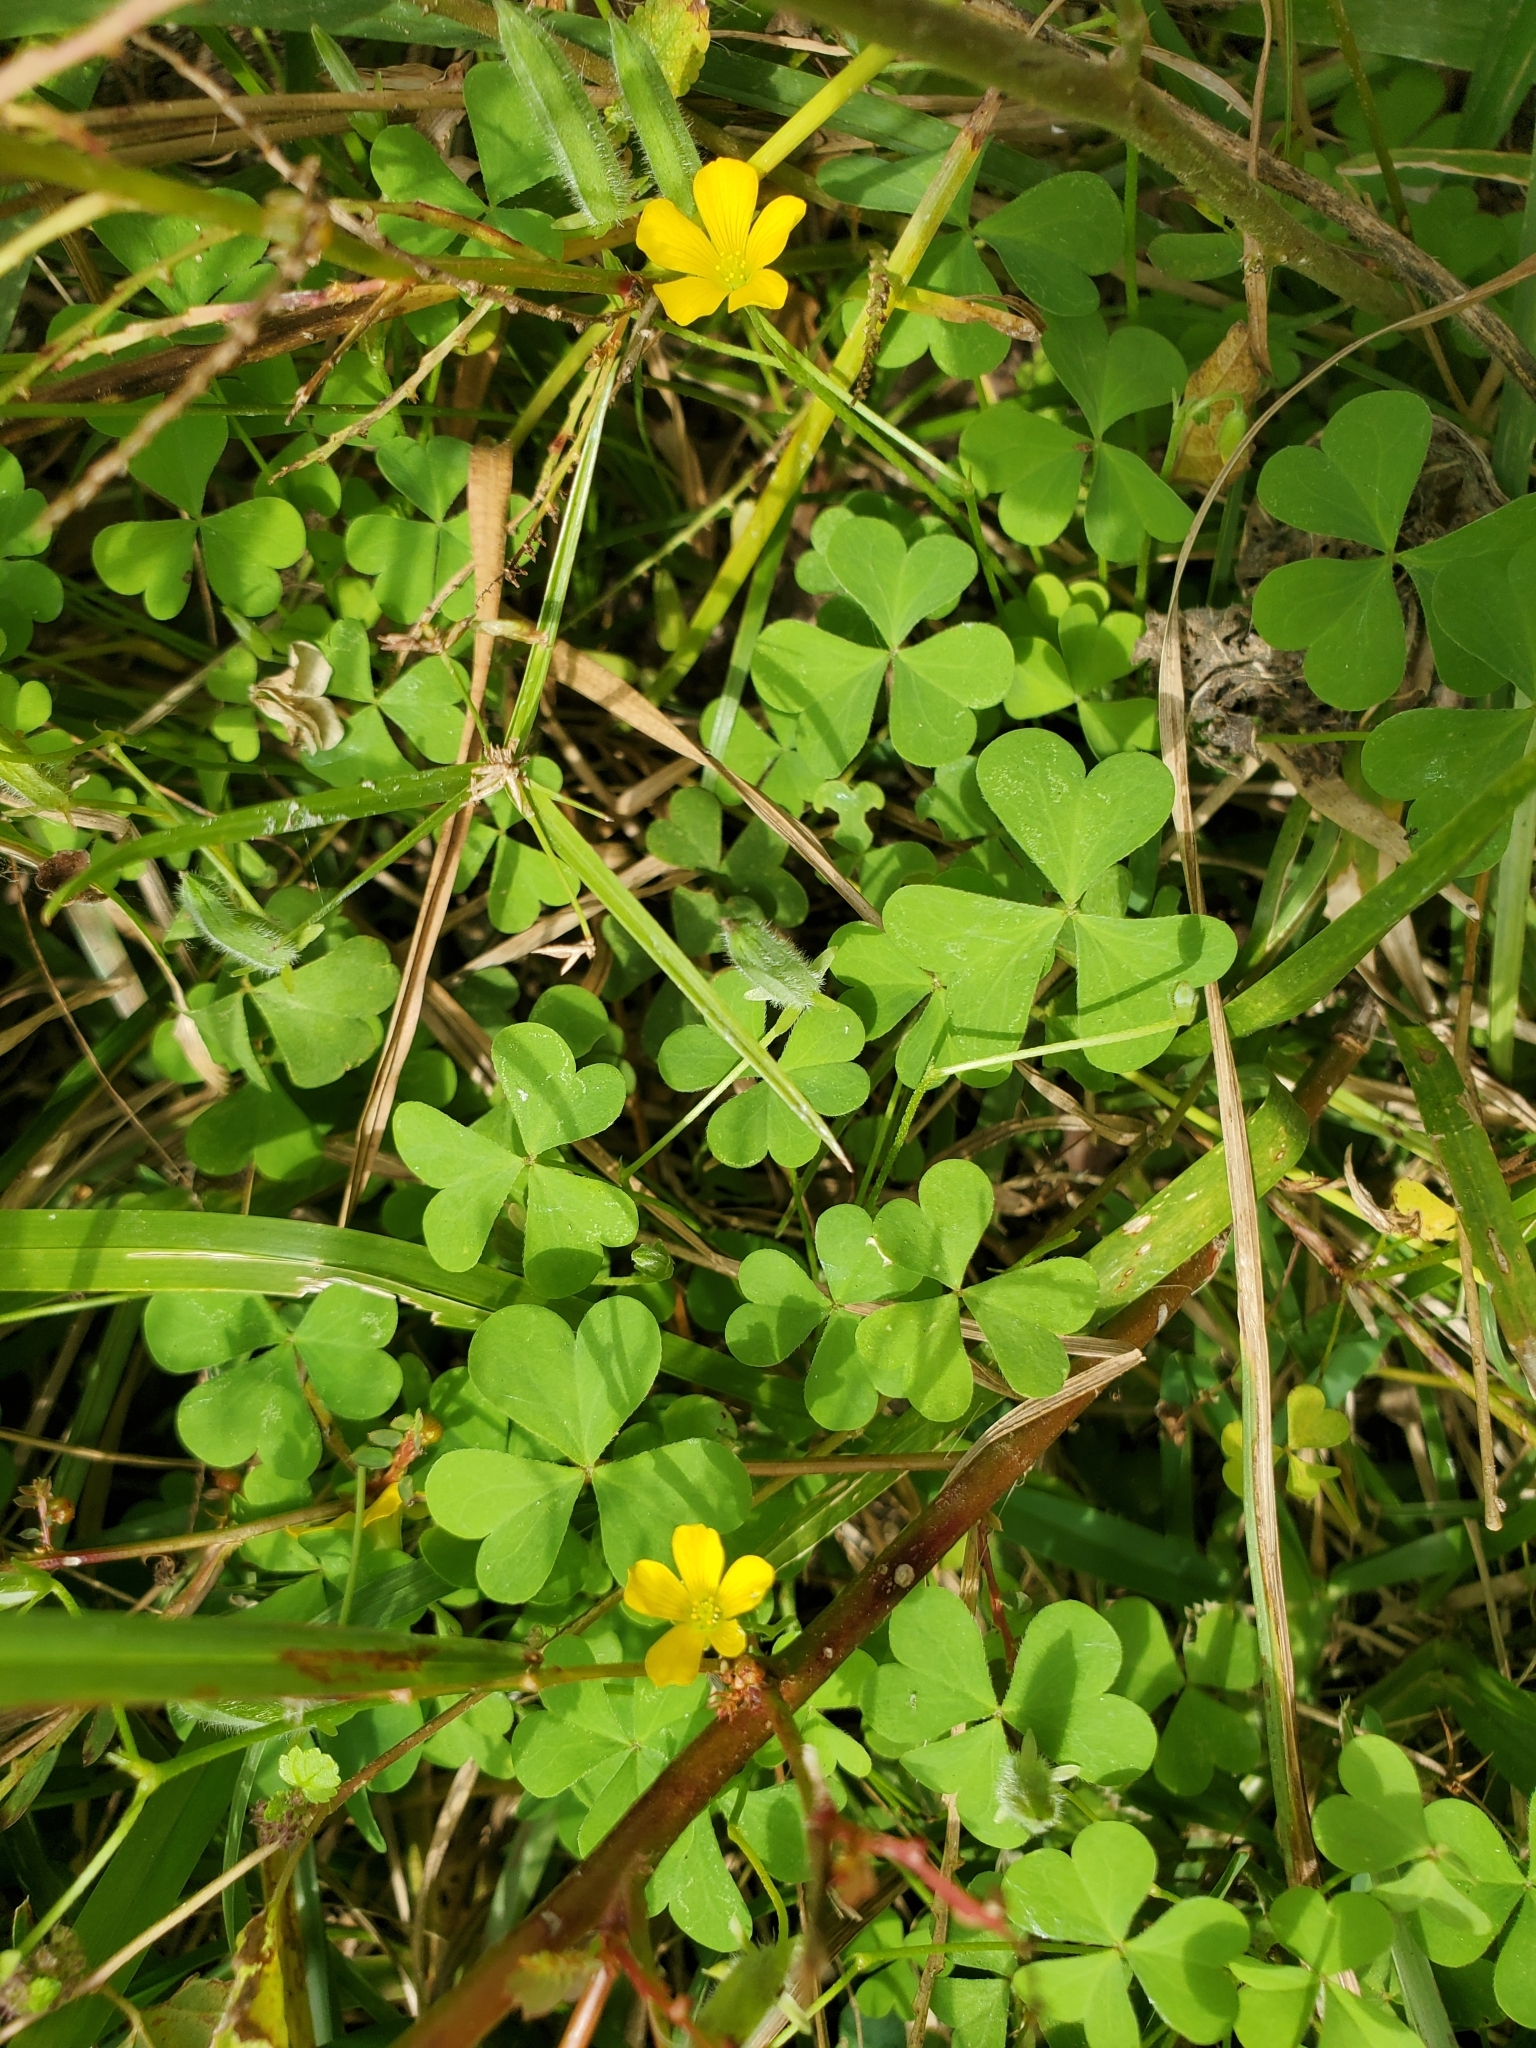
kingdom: Plantae
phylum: Tracheophyta
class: Magnoliopsida
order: Oxalidales
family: Oxalidaceae
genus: Oxalis
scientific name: Oxalis dillenii
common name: Sussex yellow-sorrel
